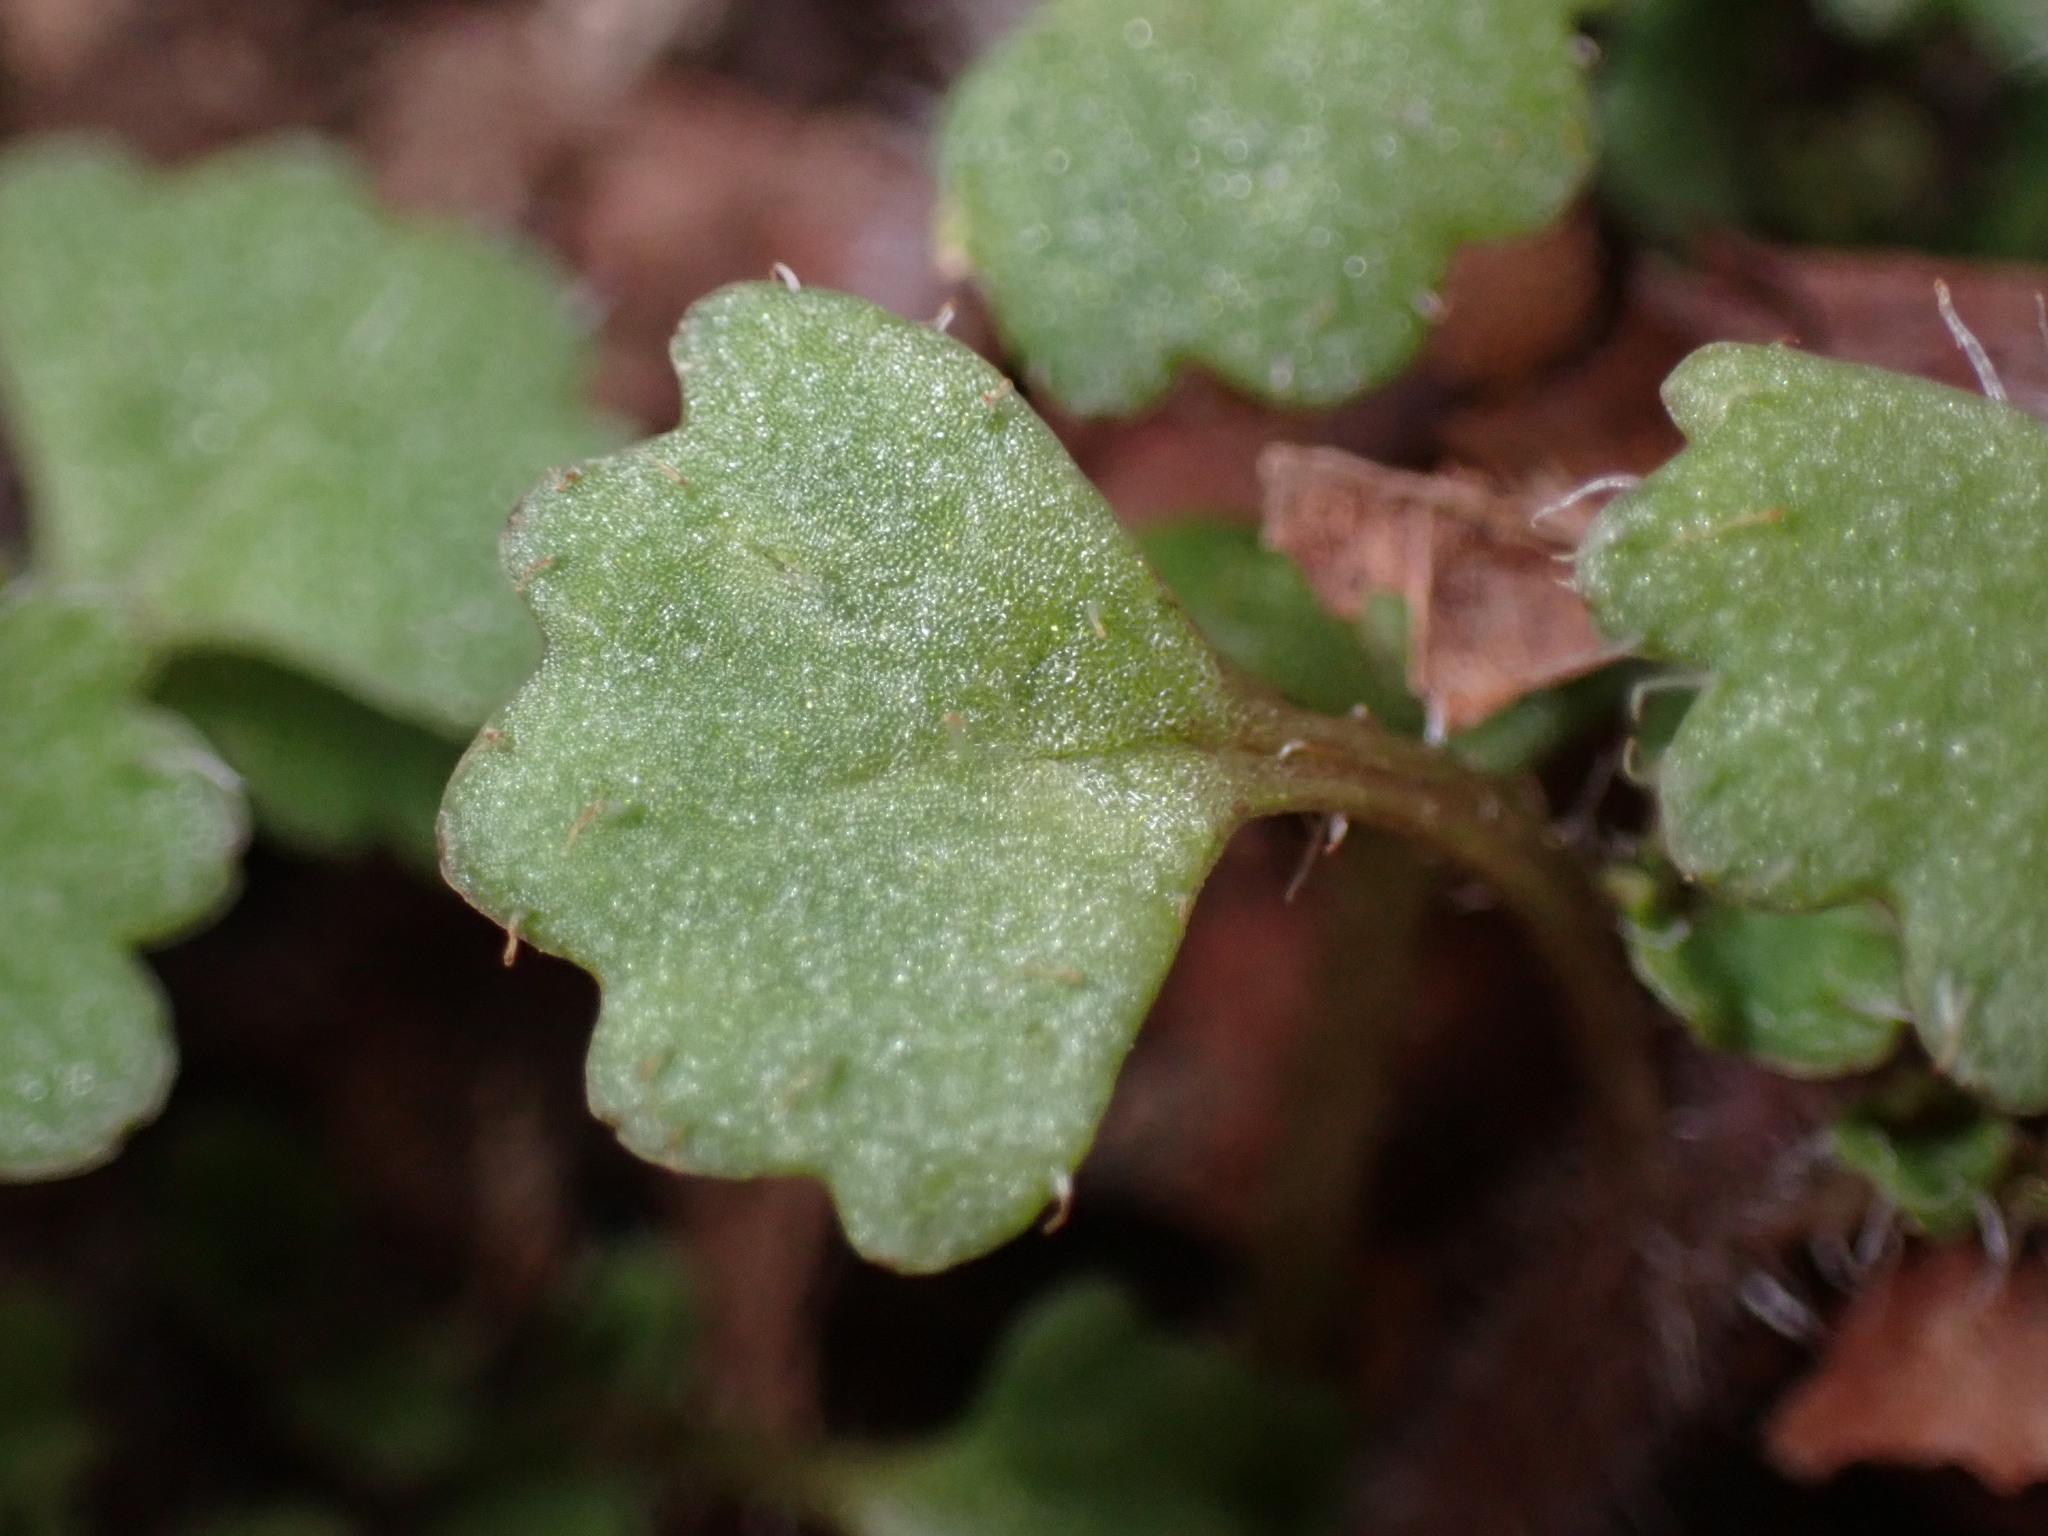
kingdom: Plantae
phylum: Tracheophyta
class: Magnoliopsida
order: Saxifragales
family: Saxifragaceae
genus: Chrysosplenium
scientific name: Chrysosplenium album
